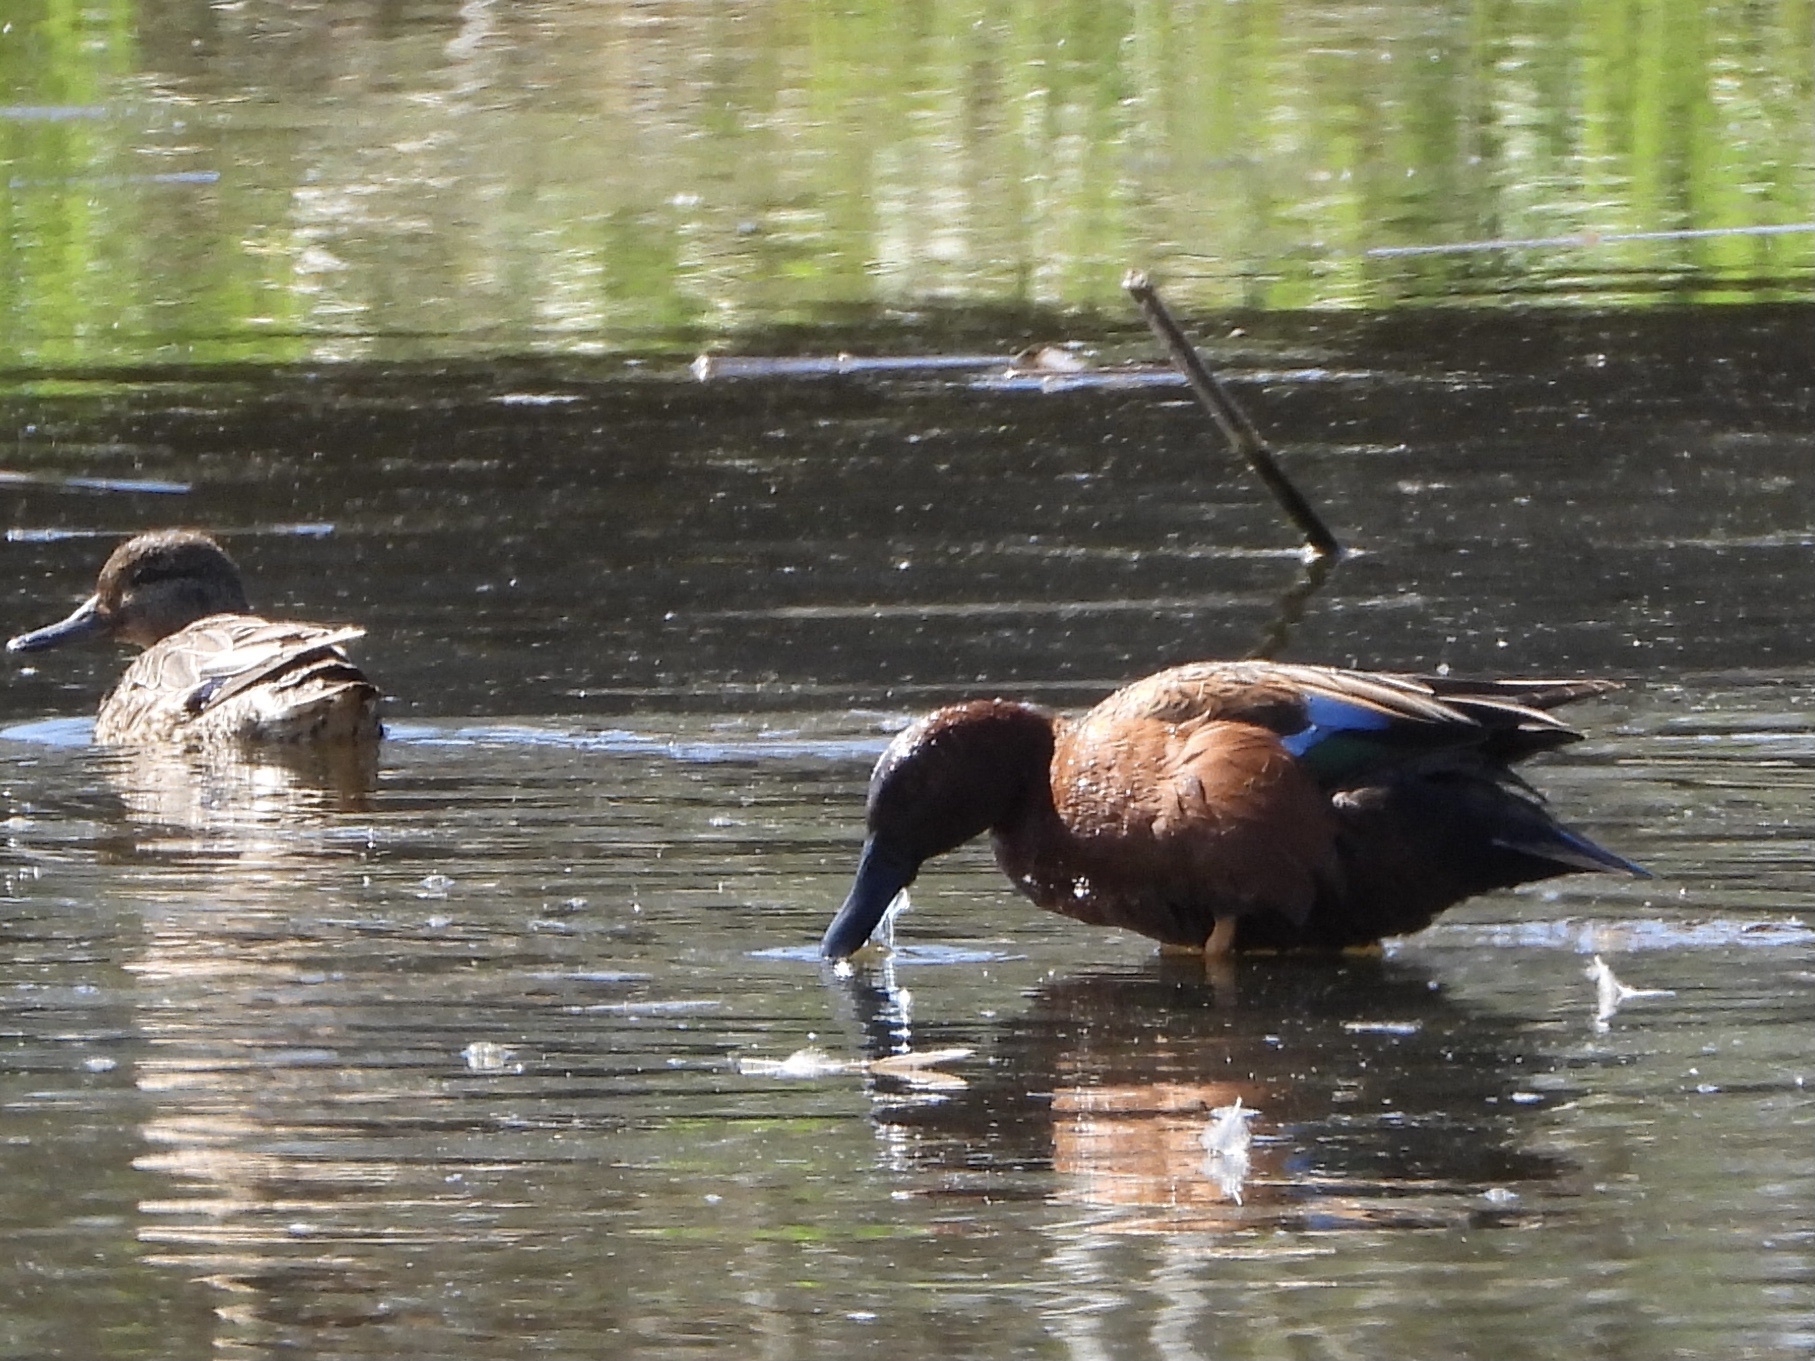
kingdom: Animalia
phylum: Chordata
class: Aves
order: Anseriformes
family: Anatidae
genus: Spatula
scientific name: Spatula cyanoptera
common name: Cinnamon teal
